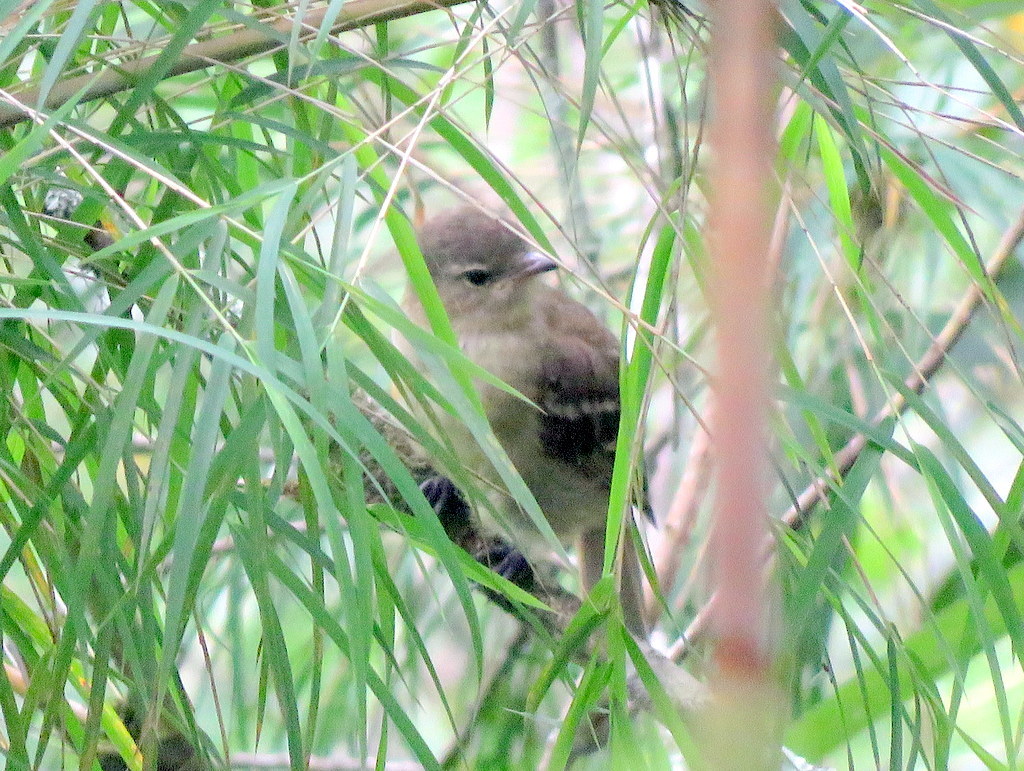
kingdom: Animalia
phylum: Chordata
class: Aves
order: Passeriformes
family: Tyrannidae
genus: Elaenia
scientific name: Elaenia obscura
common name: Highland elaenia
